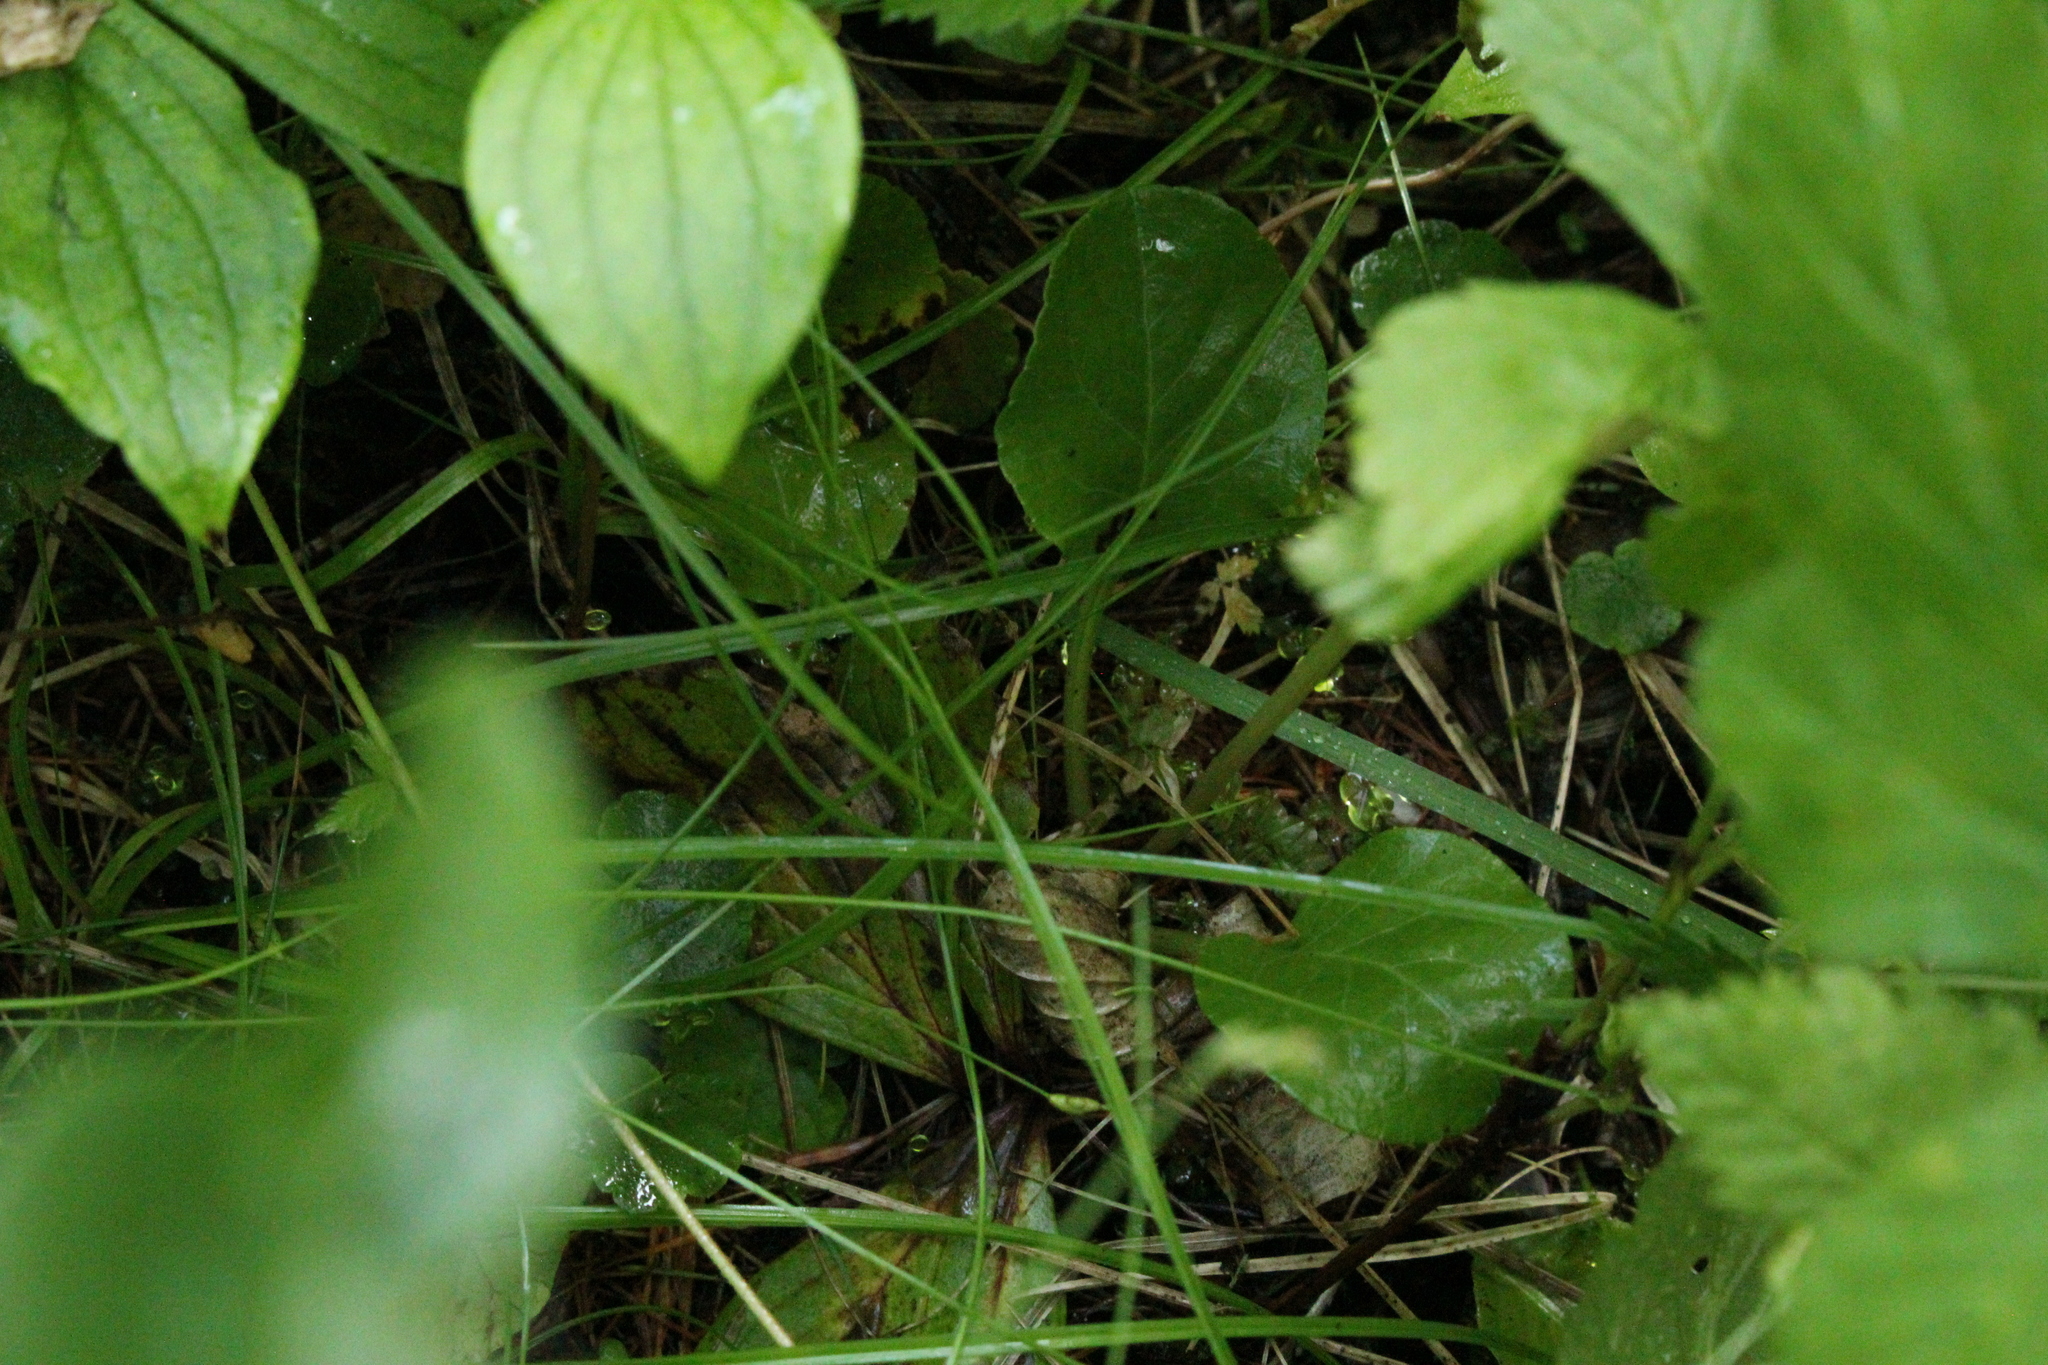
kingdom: Plantae
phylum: Tracheophyta
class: Magnoliopsida
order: Ericales
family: Ericaceae
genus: Pyrola
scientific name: Pyrola asarifolia
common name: Bog wintergreen
